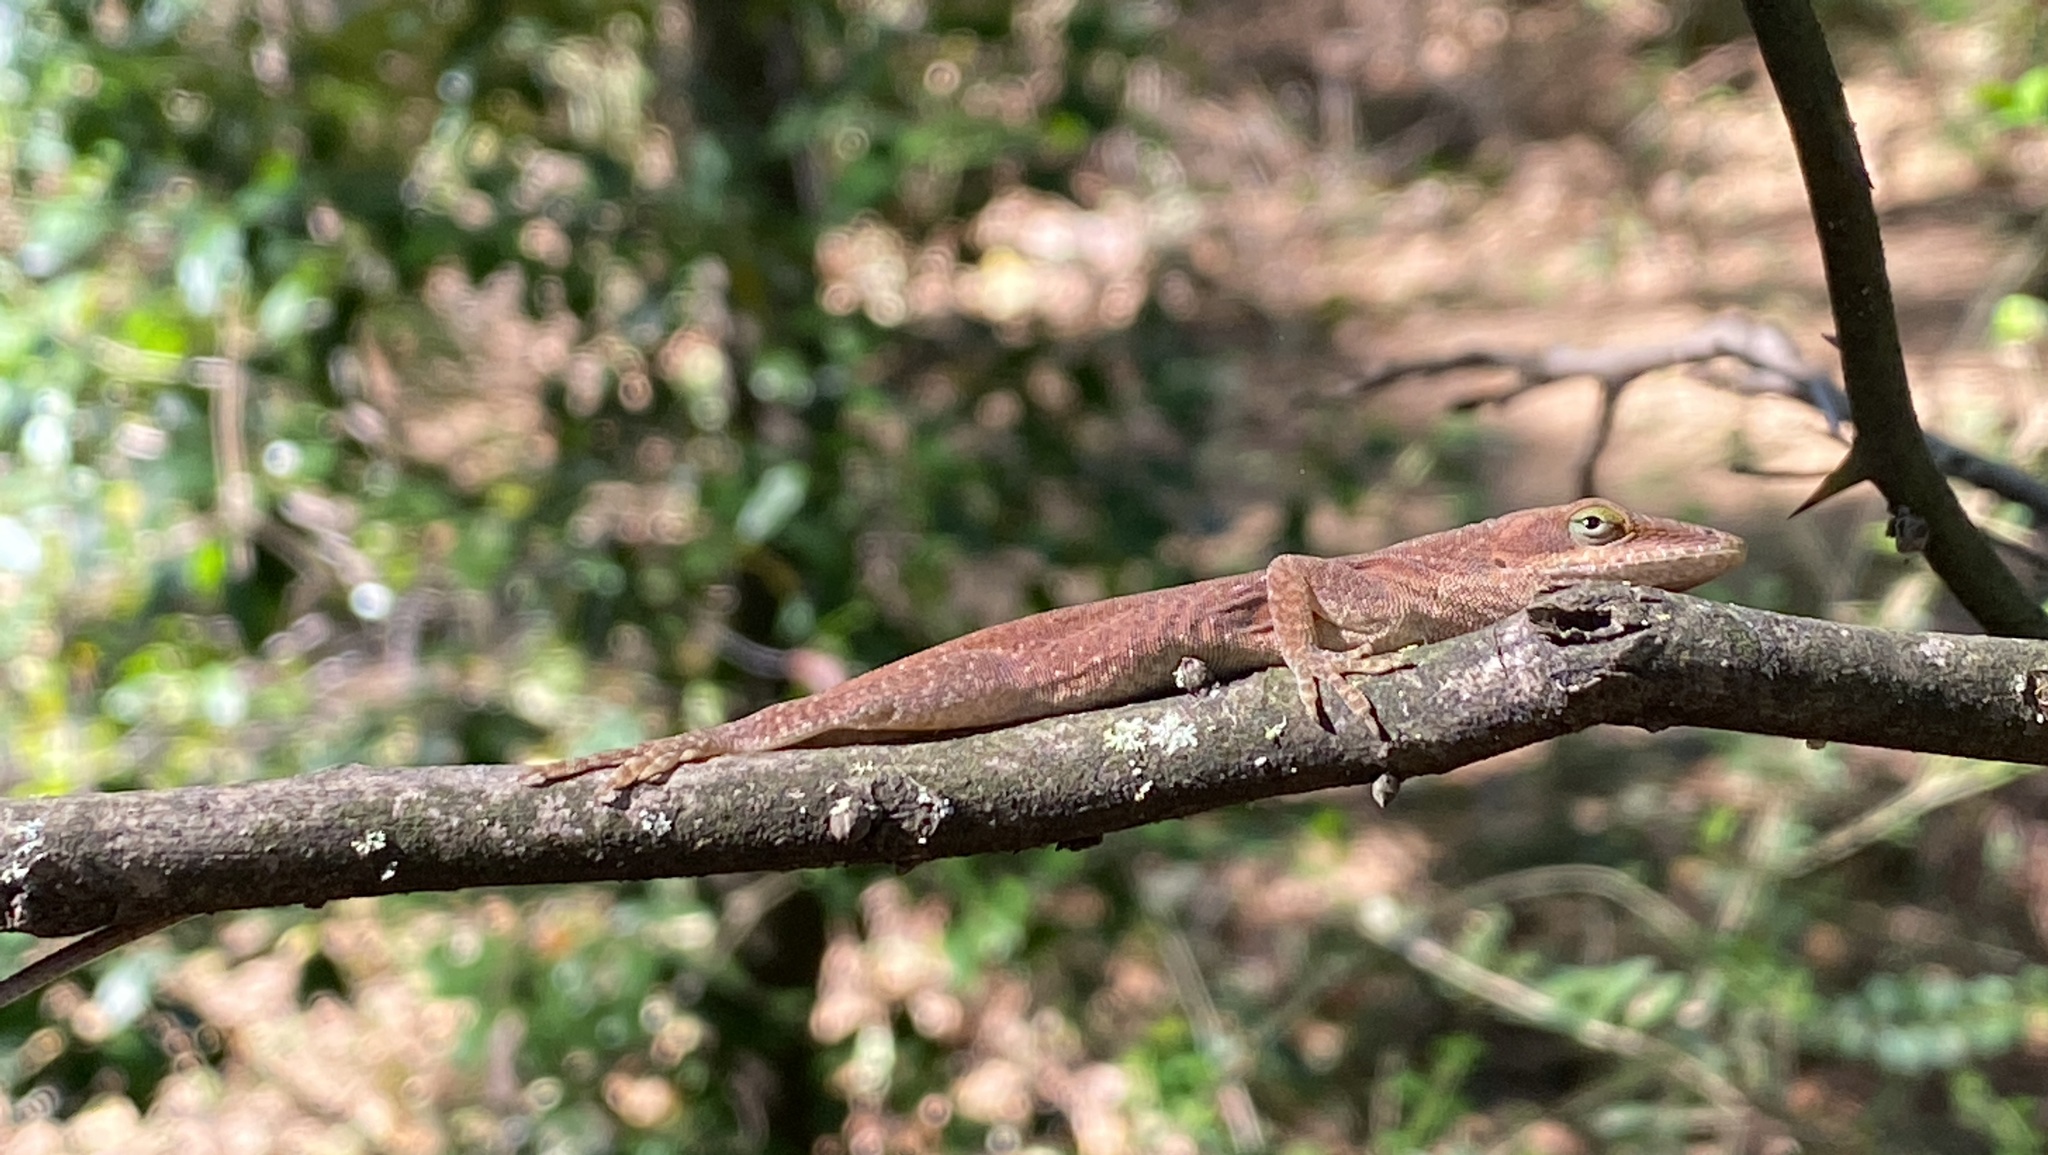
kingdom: Animalia
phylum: Chordata
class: Squamata
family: Dactyloidae
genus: Anolis
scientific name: Anolis carolinensis
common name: Green anole
